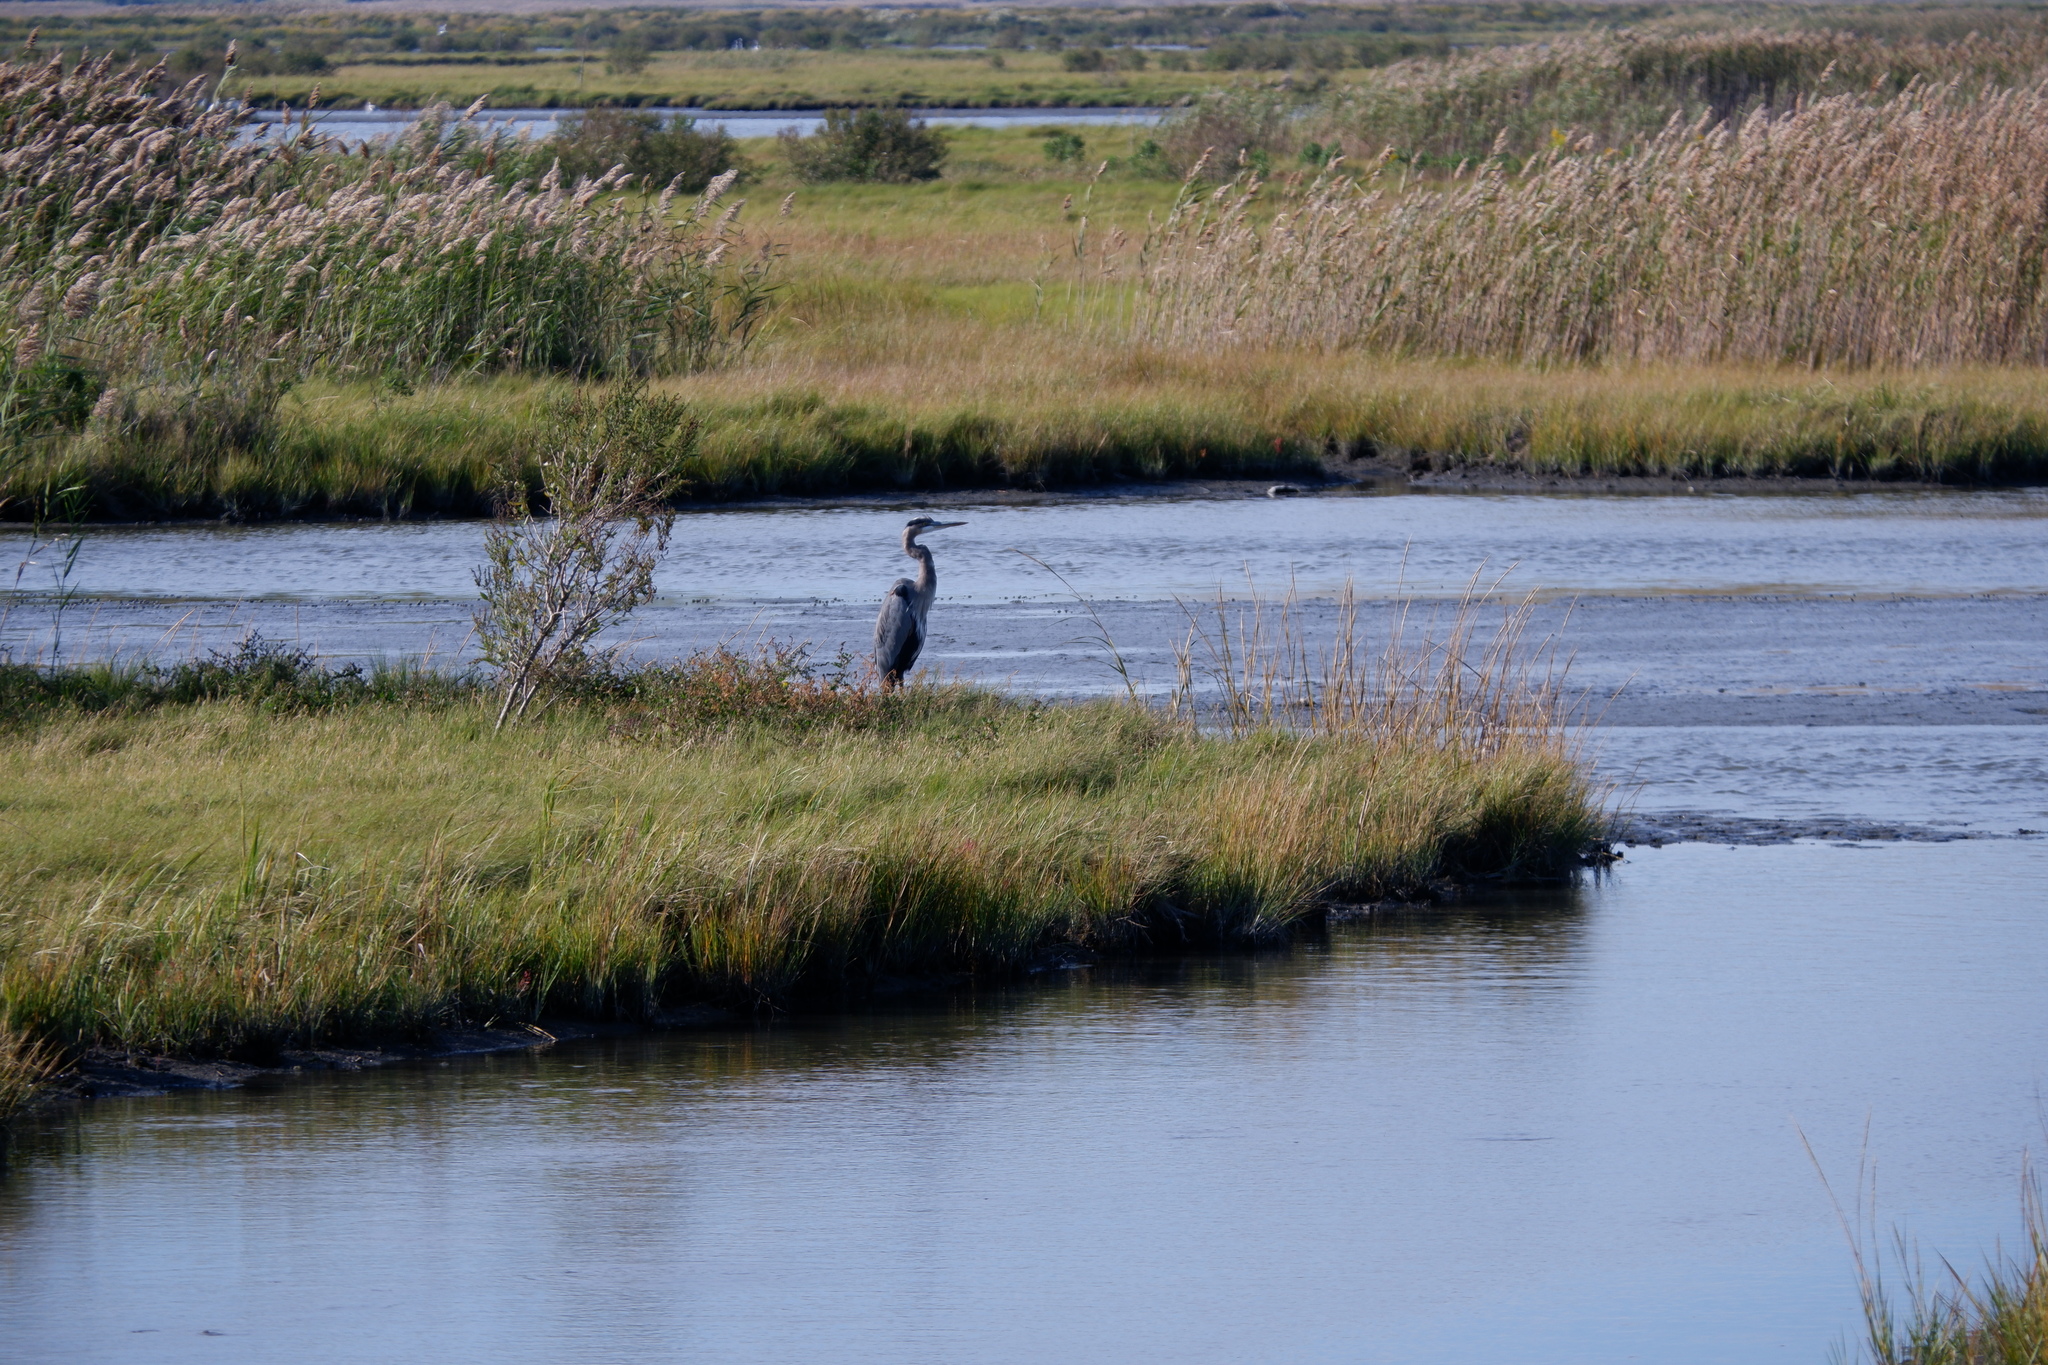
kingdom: Animalia
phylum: Chordata
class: Aves
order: Pelecaniformes
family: Ardeidae
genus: Ardea
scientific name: Ardea herodias
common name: Great blue heron
